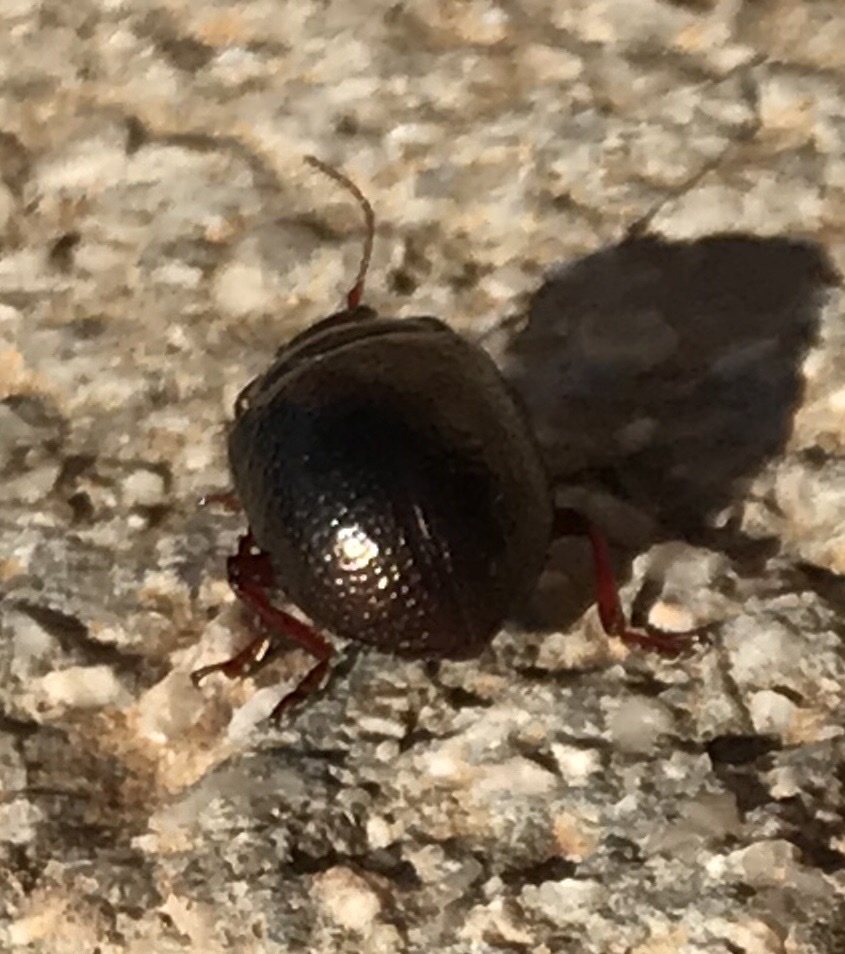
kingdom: Animalia
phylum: Arthropoda
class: Insecta
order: Coleoptera
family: Chrysomelidae
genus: Chrysolina
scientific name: Chrysolina bankii
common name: Leaf beetle
